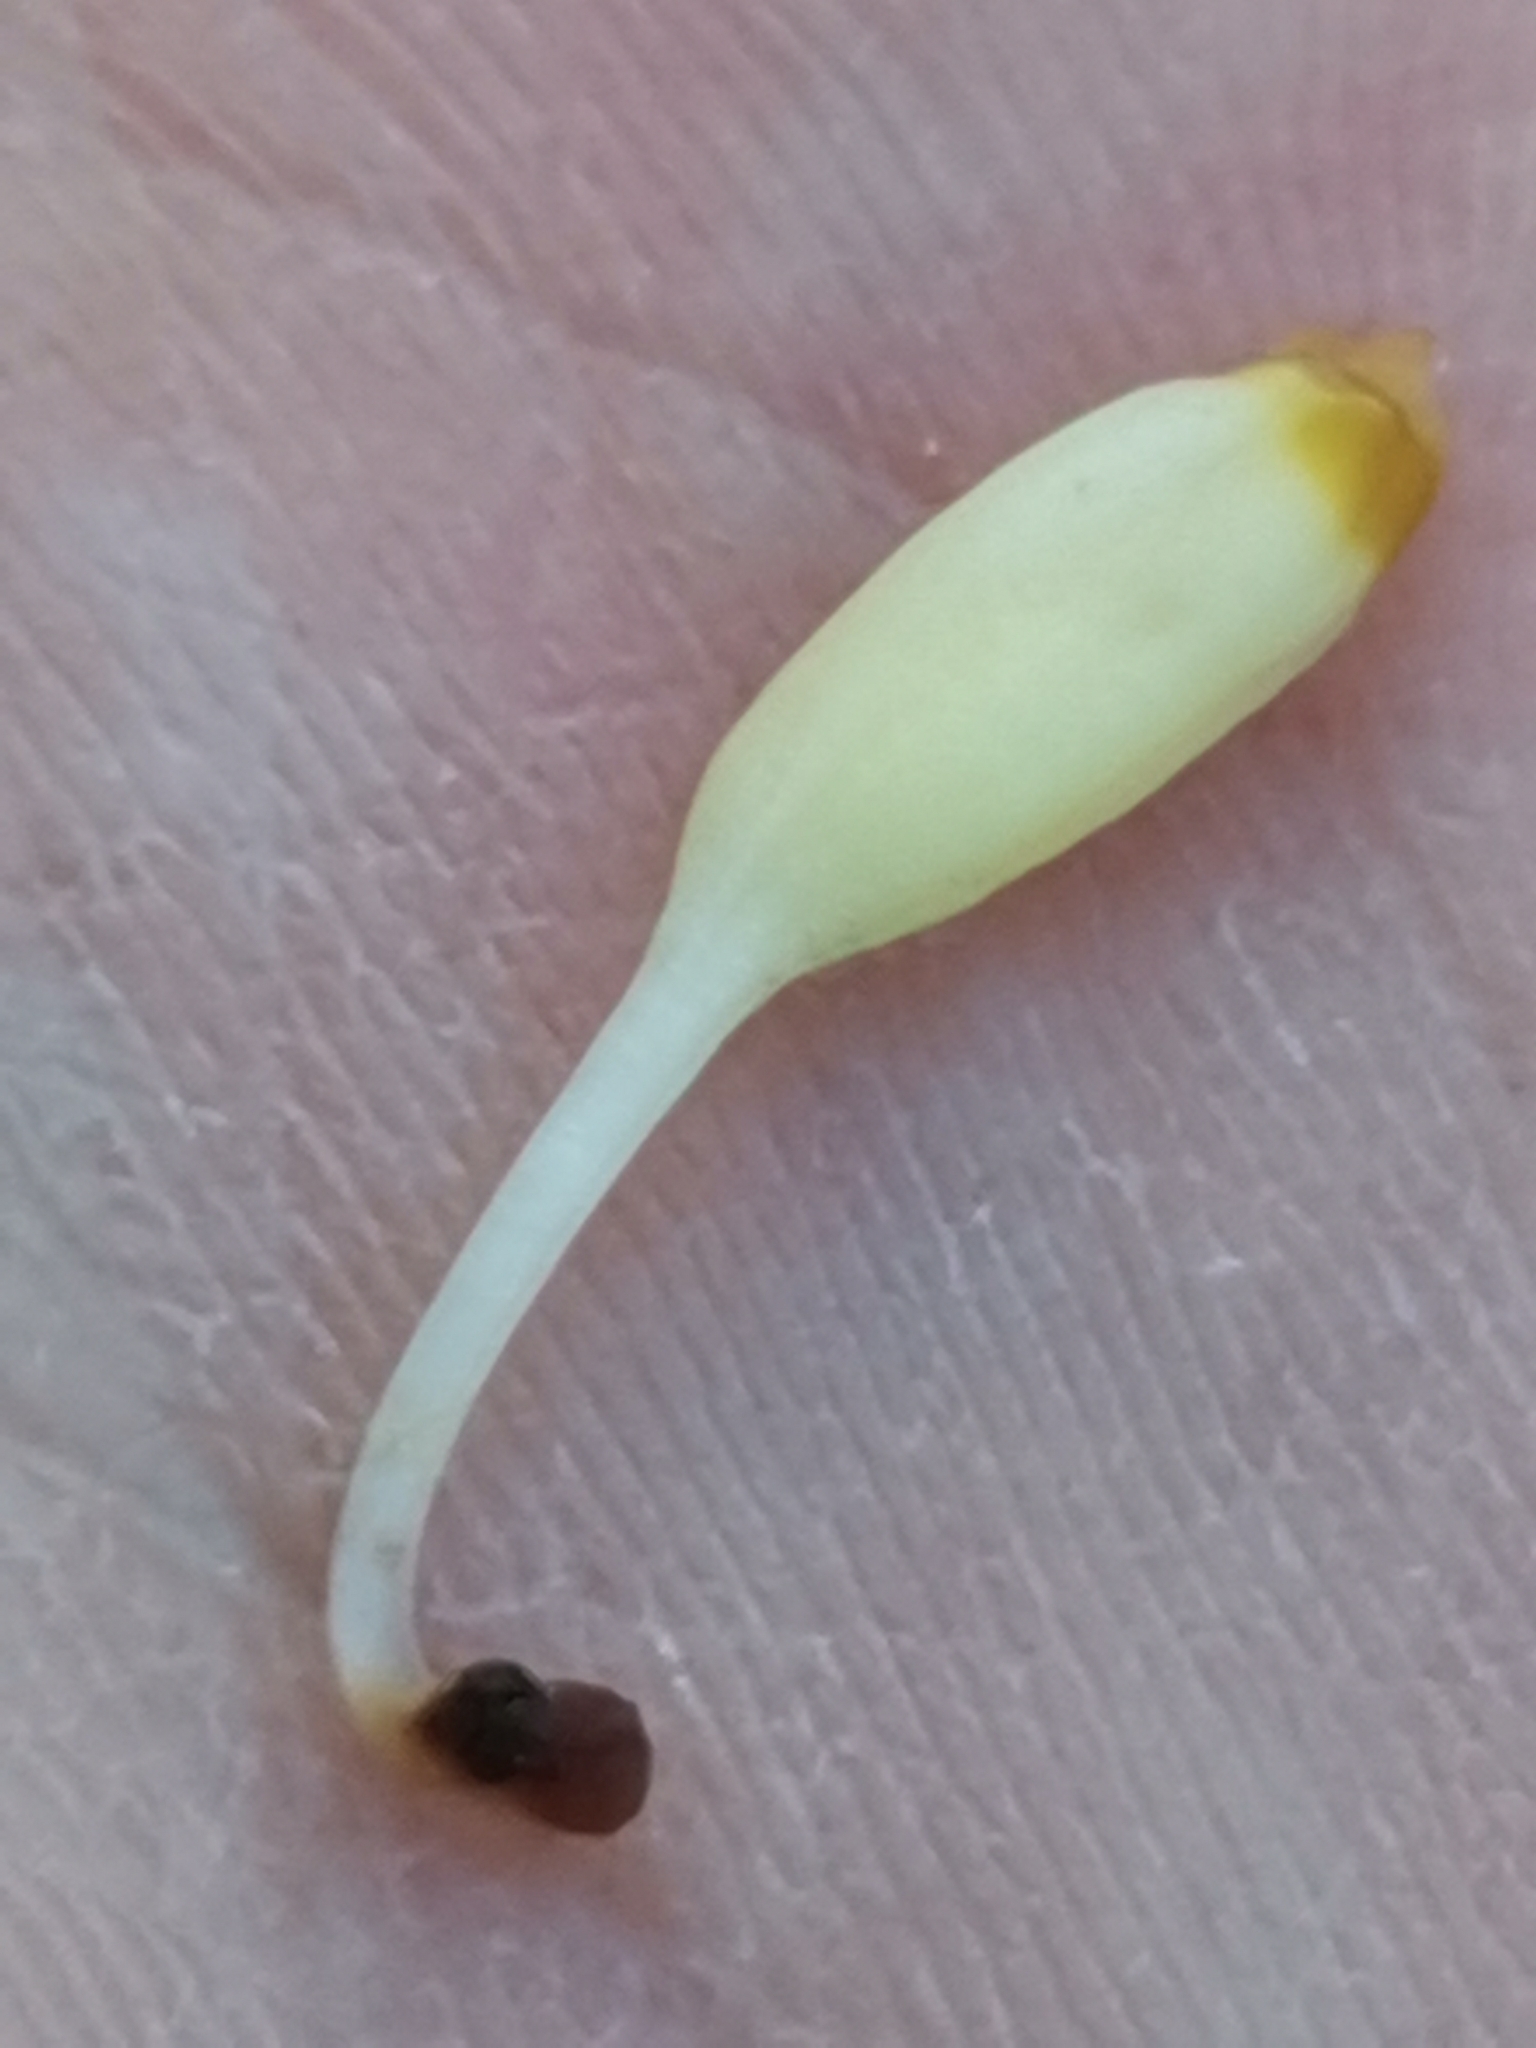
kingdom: Plantae
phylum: Tracheophyta
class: Magnoliopsida
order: Lamiales
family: Orobanchaceae
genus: Orobanche
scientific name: Orobanche reticulata
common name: Thistle broomrape
